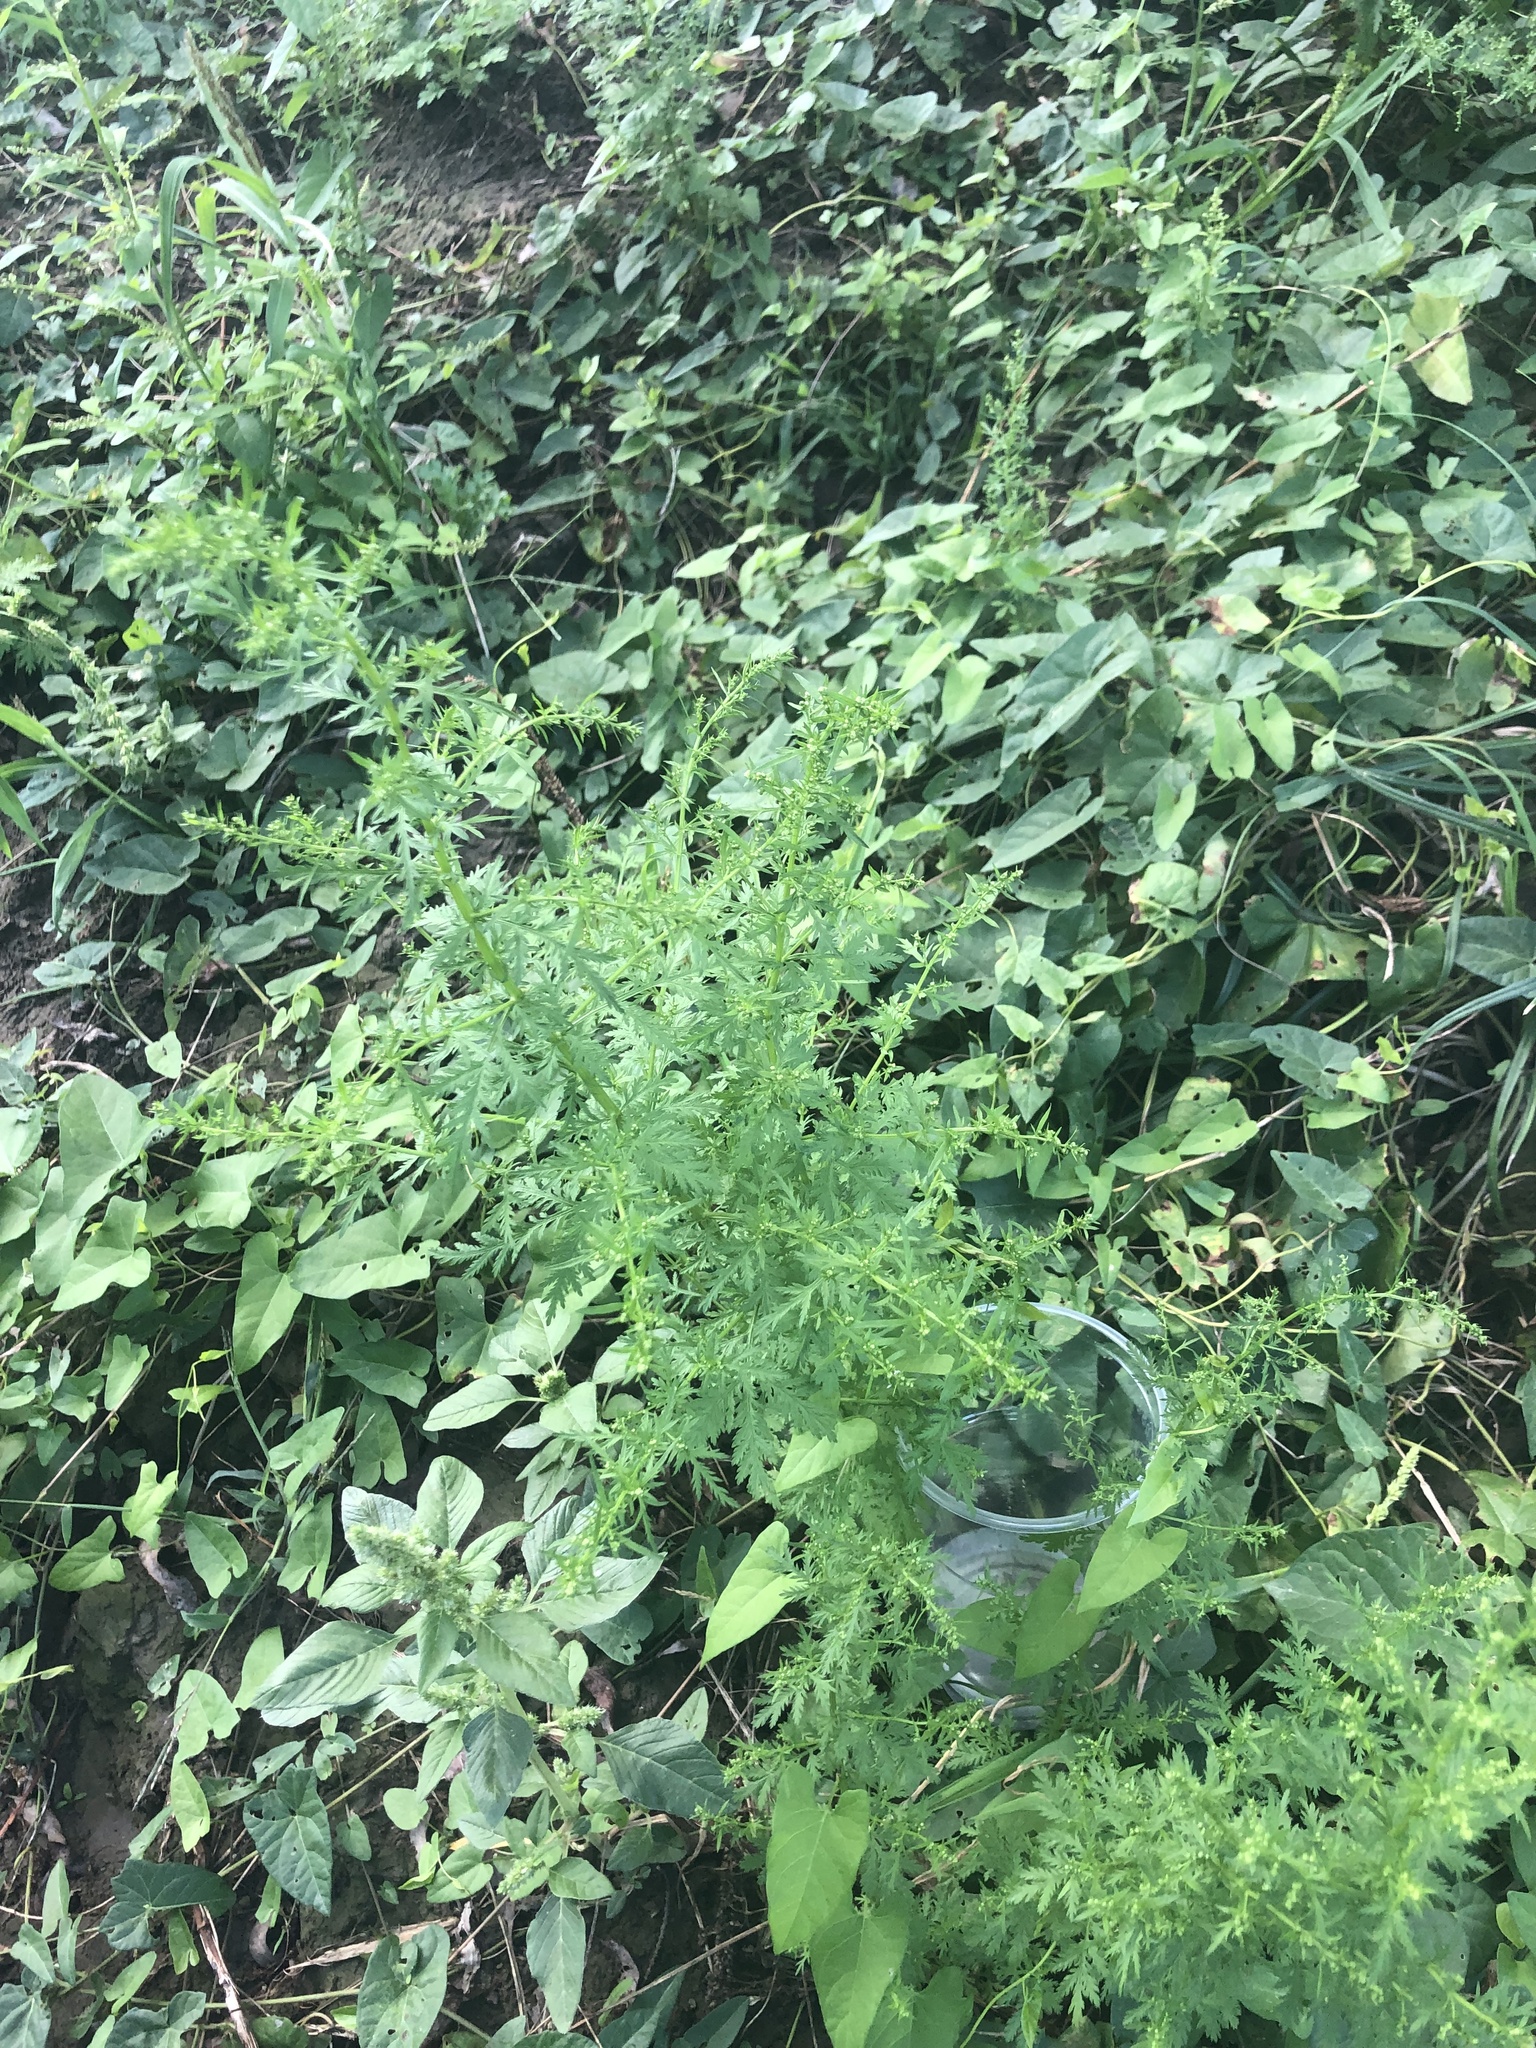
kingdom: Plantae
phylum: Tracheophyta
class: Magnoliopsida
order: Asterales
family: Asteraceae
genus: Artemisia
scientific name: Artemisia annua
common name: Sweet sagewort
